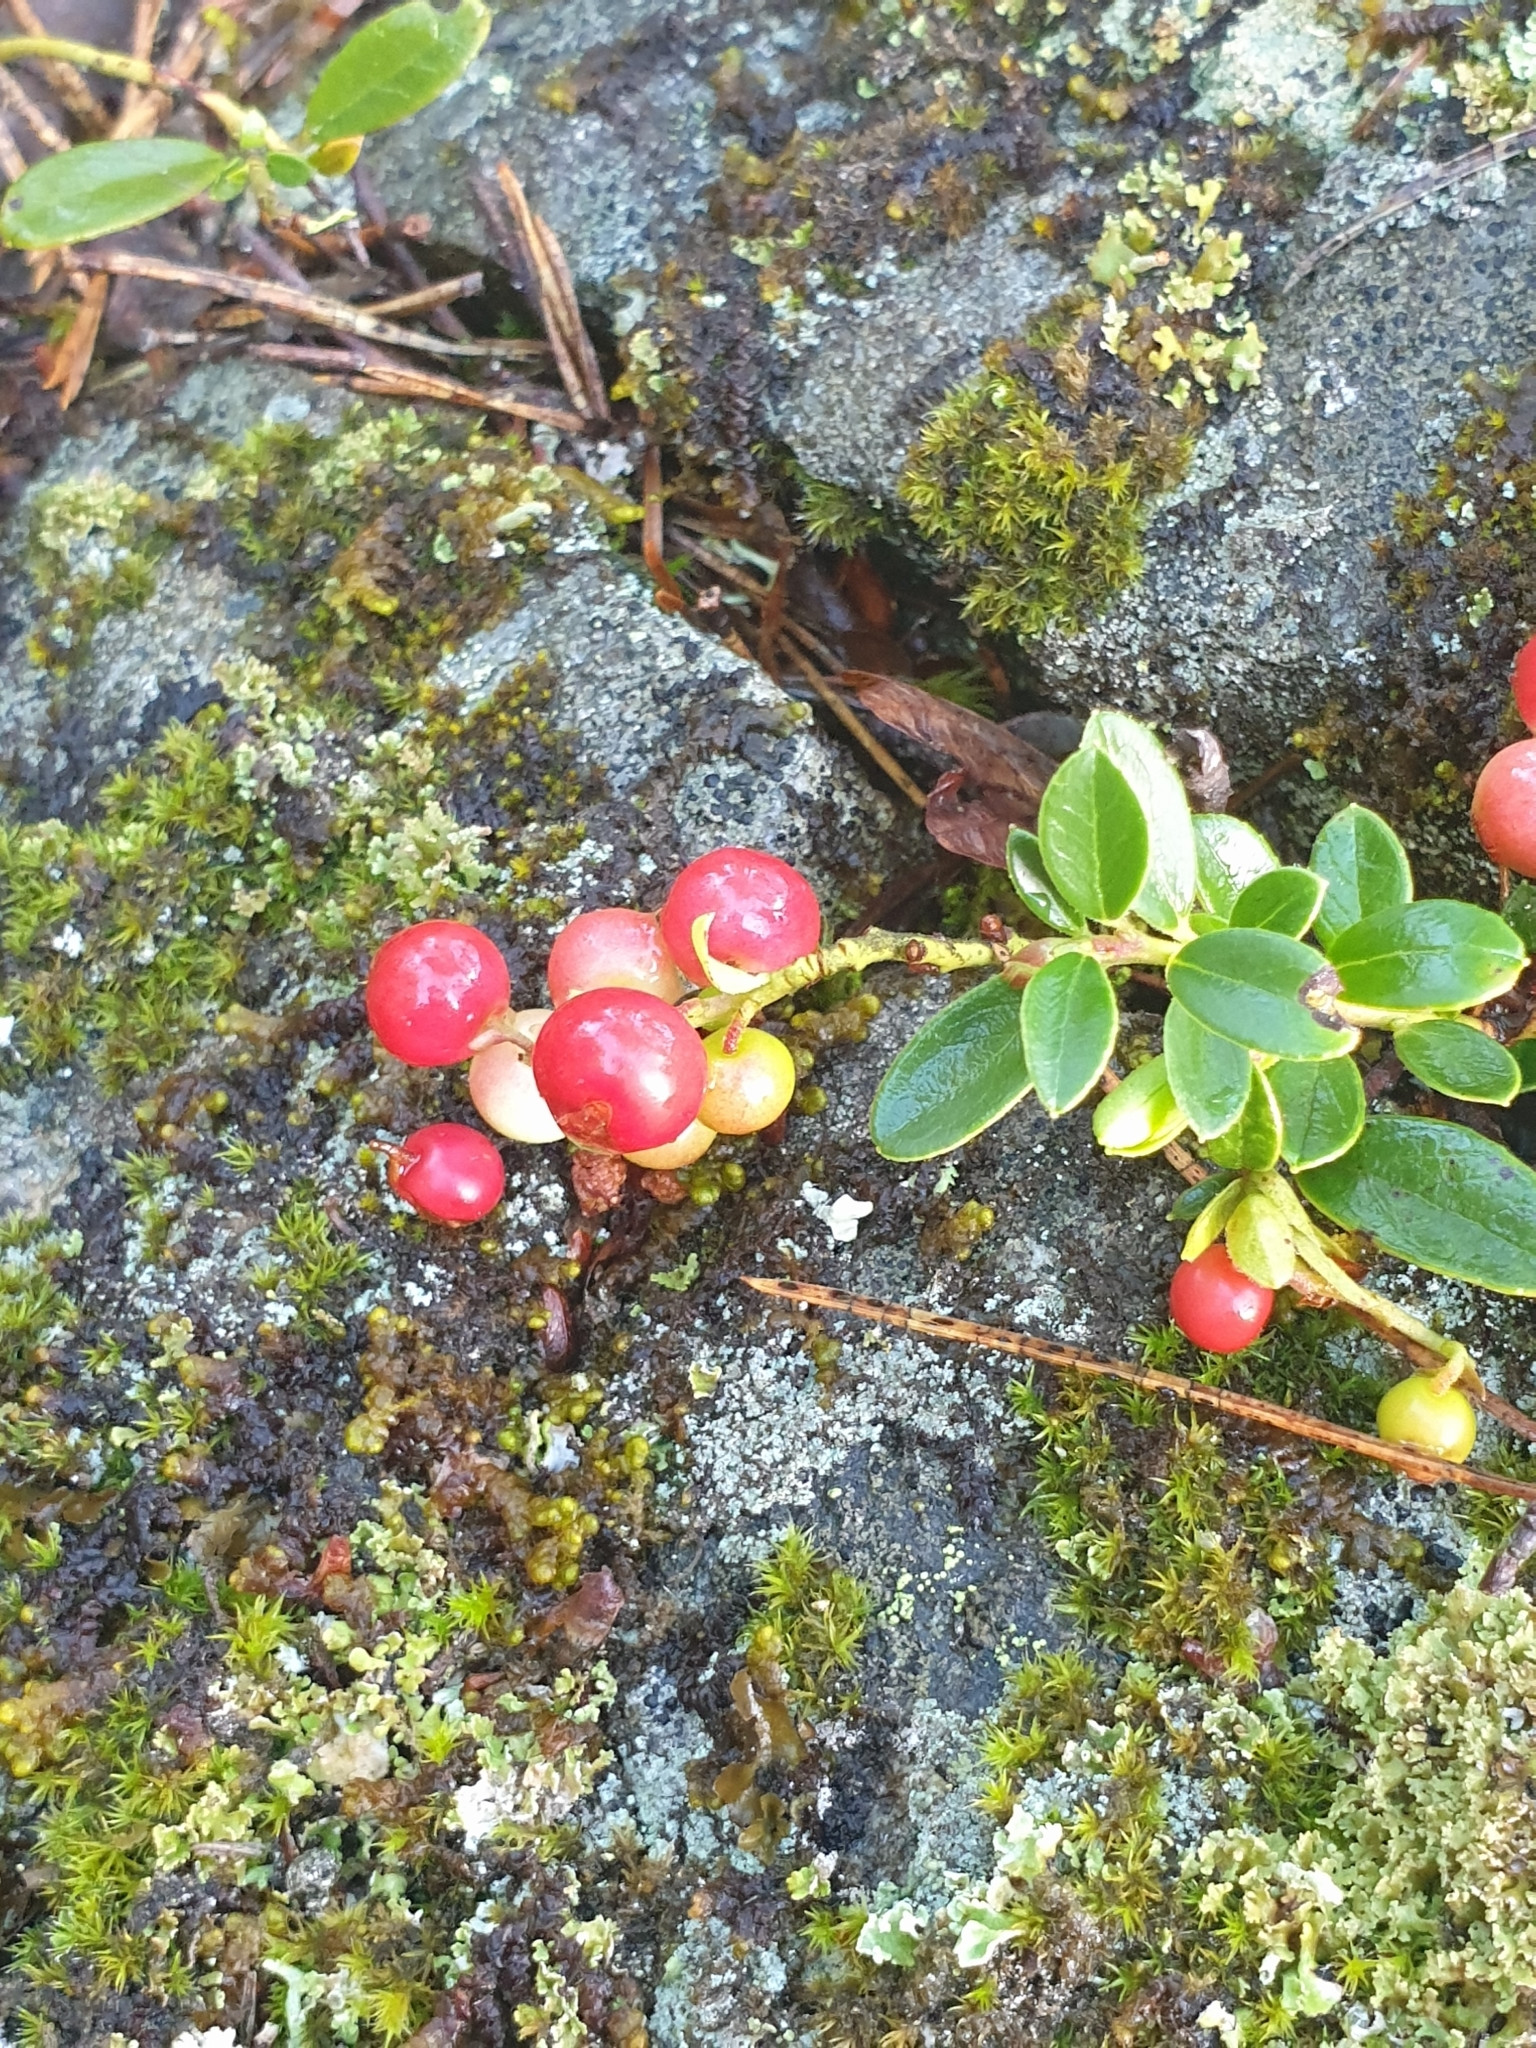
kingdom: Plantae
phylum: Tracheophyta
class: Magnoliopsida
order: Ericales
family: Ericaceae
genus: Vaccinium
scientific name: Vaccinium vitis-idaea
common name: Cowberry
